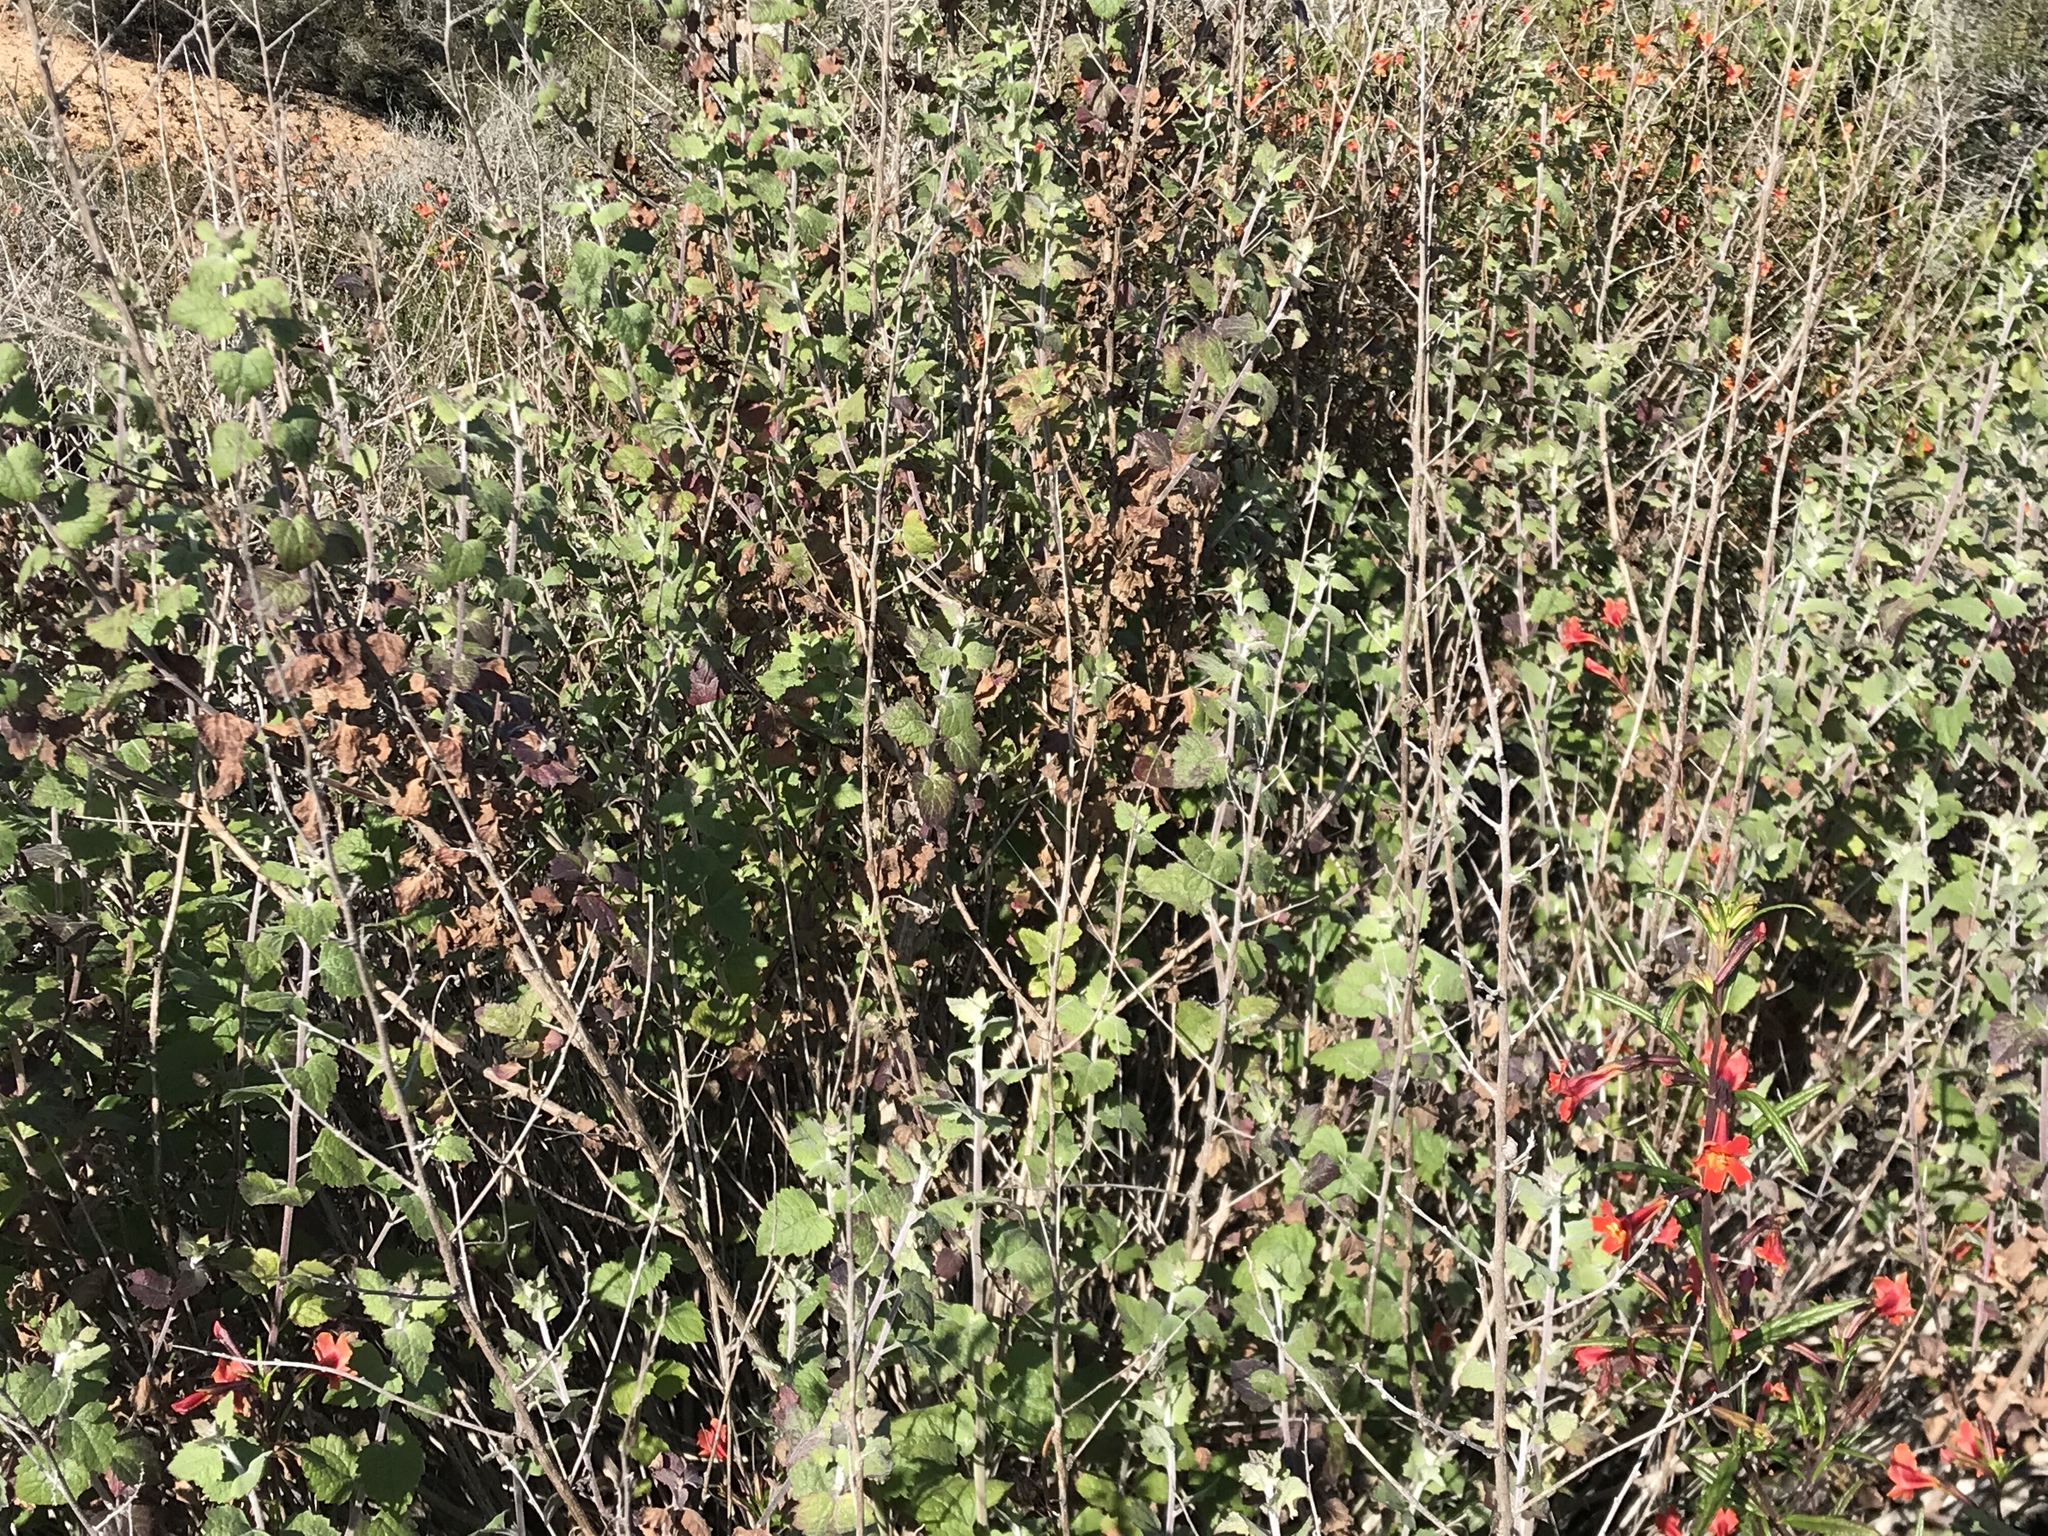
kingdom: Plantae
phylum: Tracheophyta
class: Magnoliopsida
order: Asterales
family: Asteraceae
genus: Brickellia
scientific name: Brickellia californica
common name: California brickellbush
